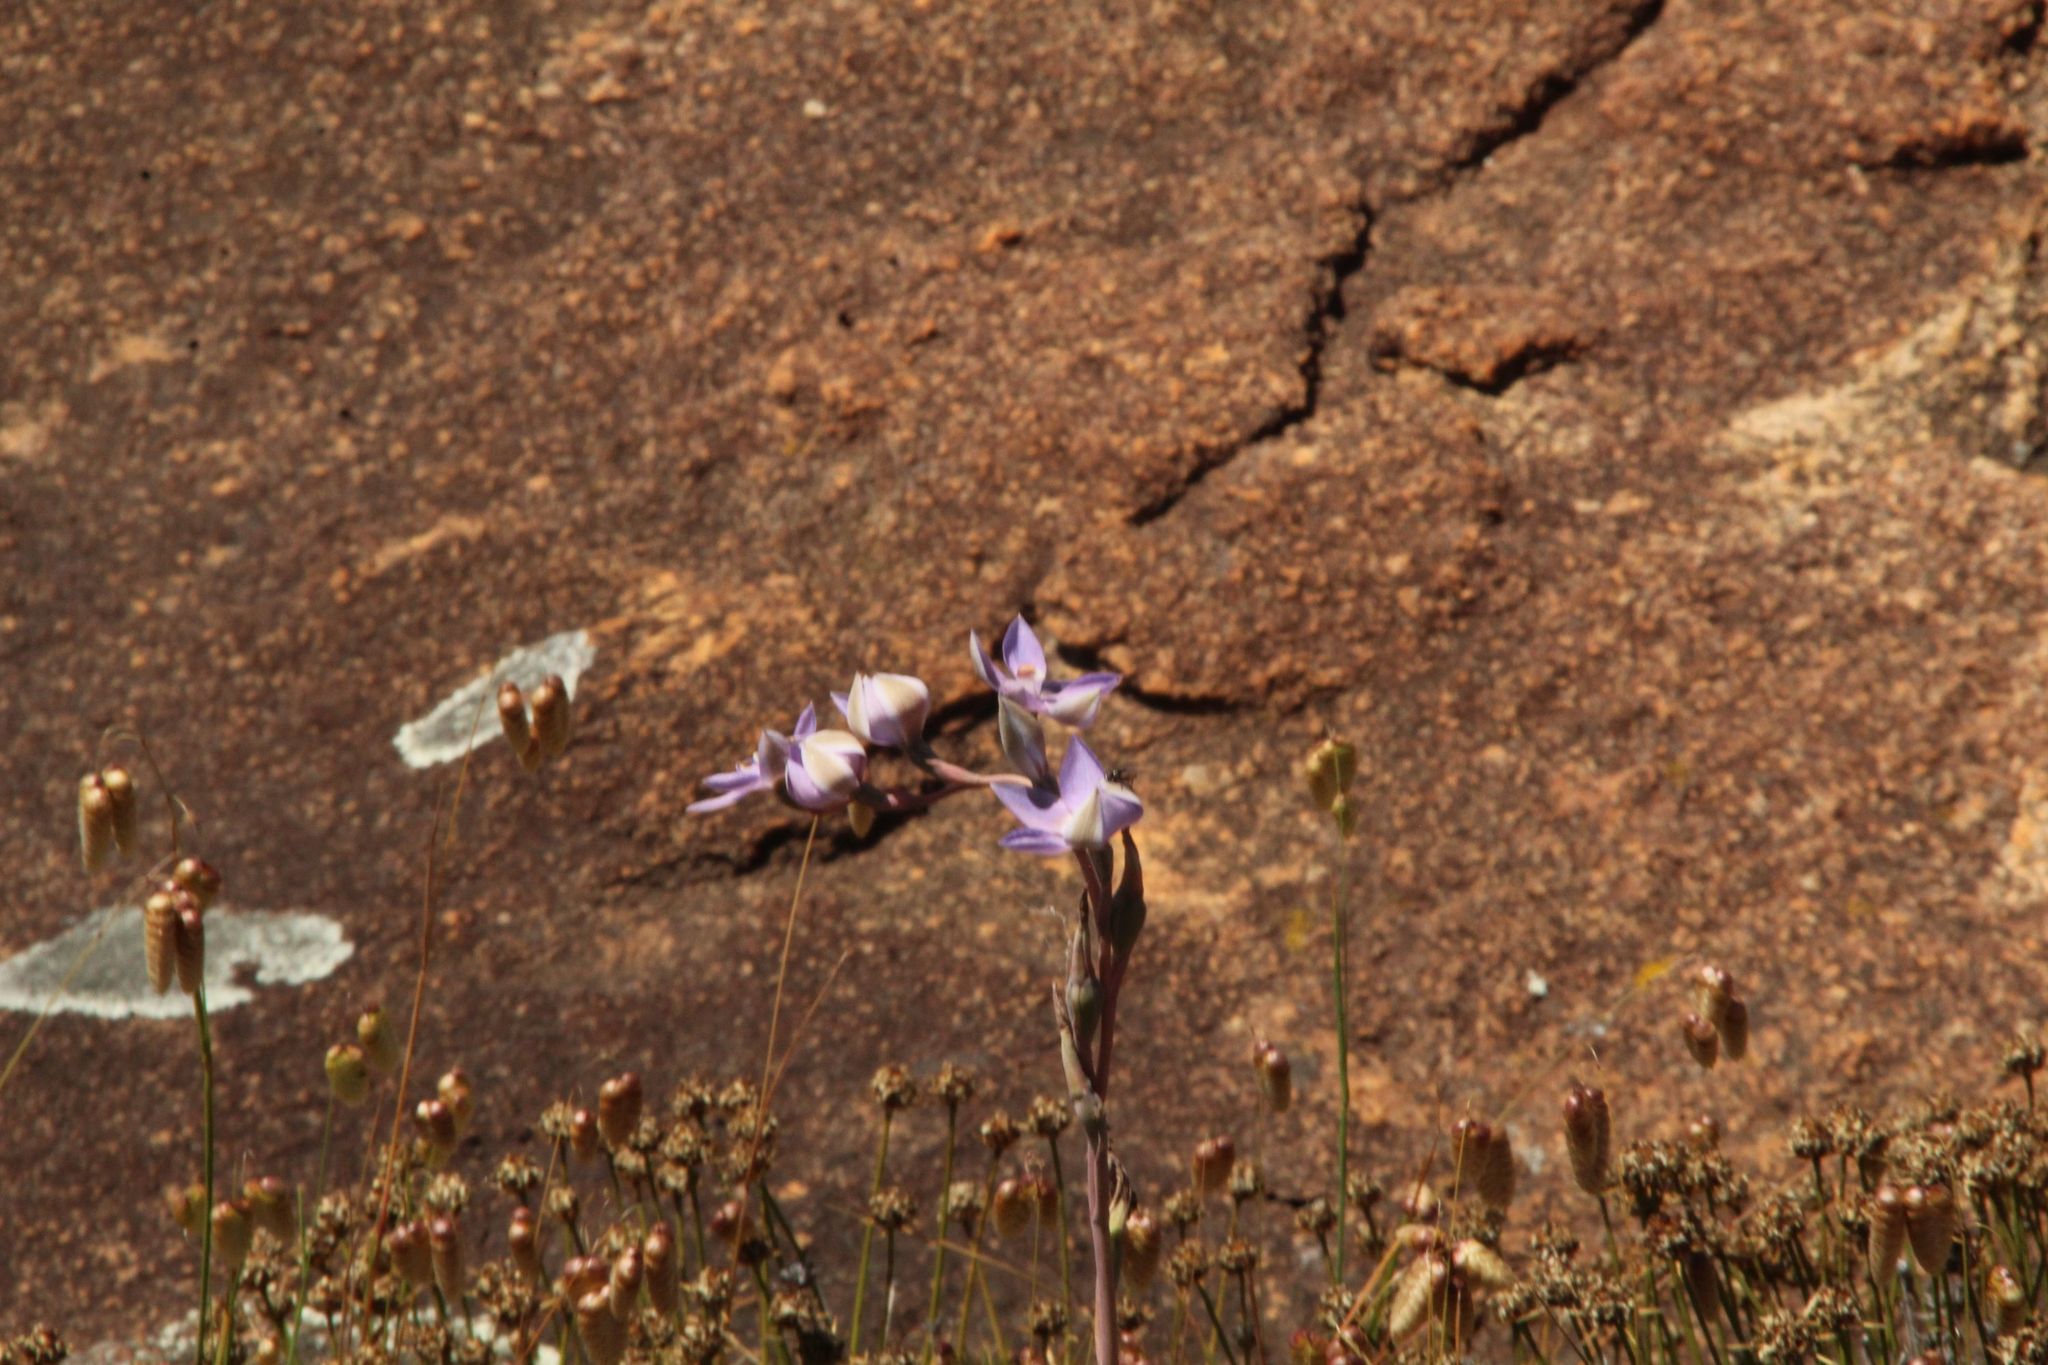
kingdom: Plantae
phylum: Tracheophyta
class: Liliopsida
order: Asparagales
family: Orchidaceae
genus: Thelymitra
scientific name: Thelymitra petrophila
